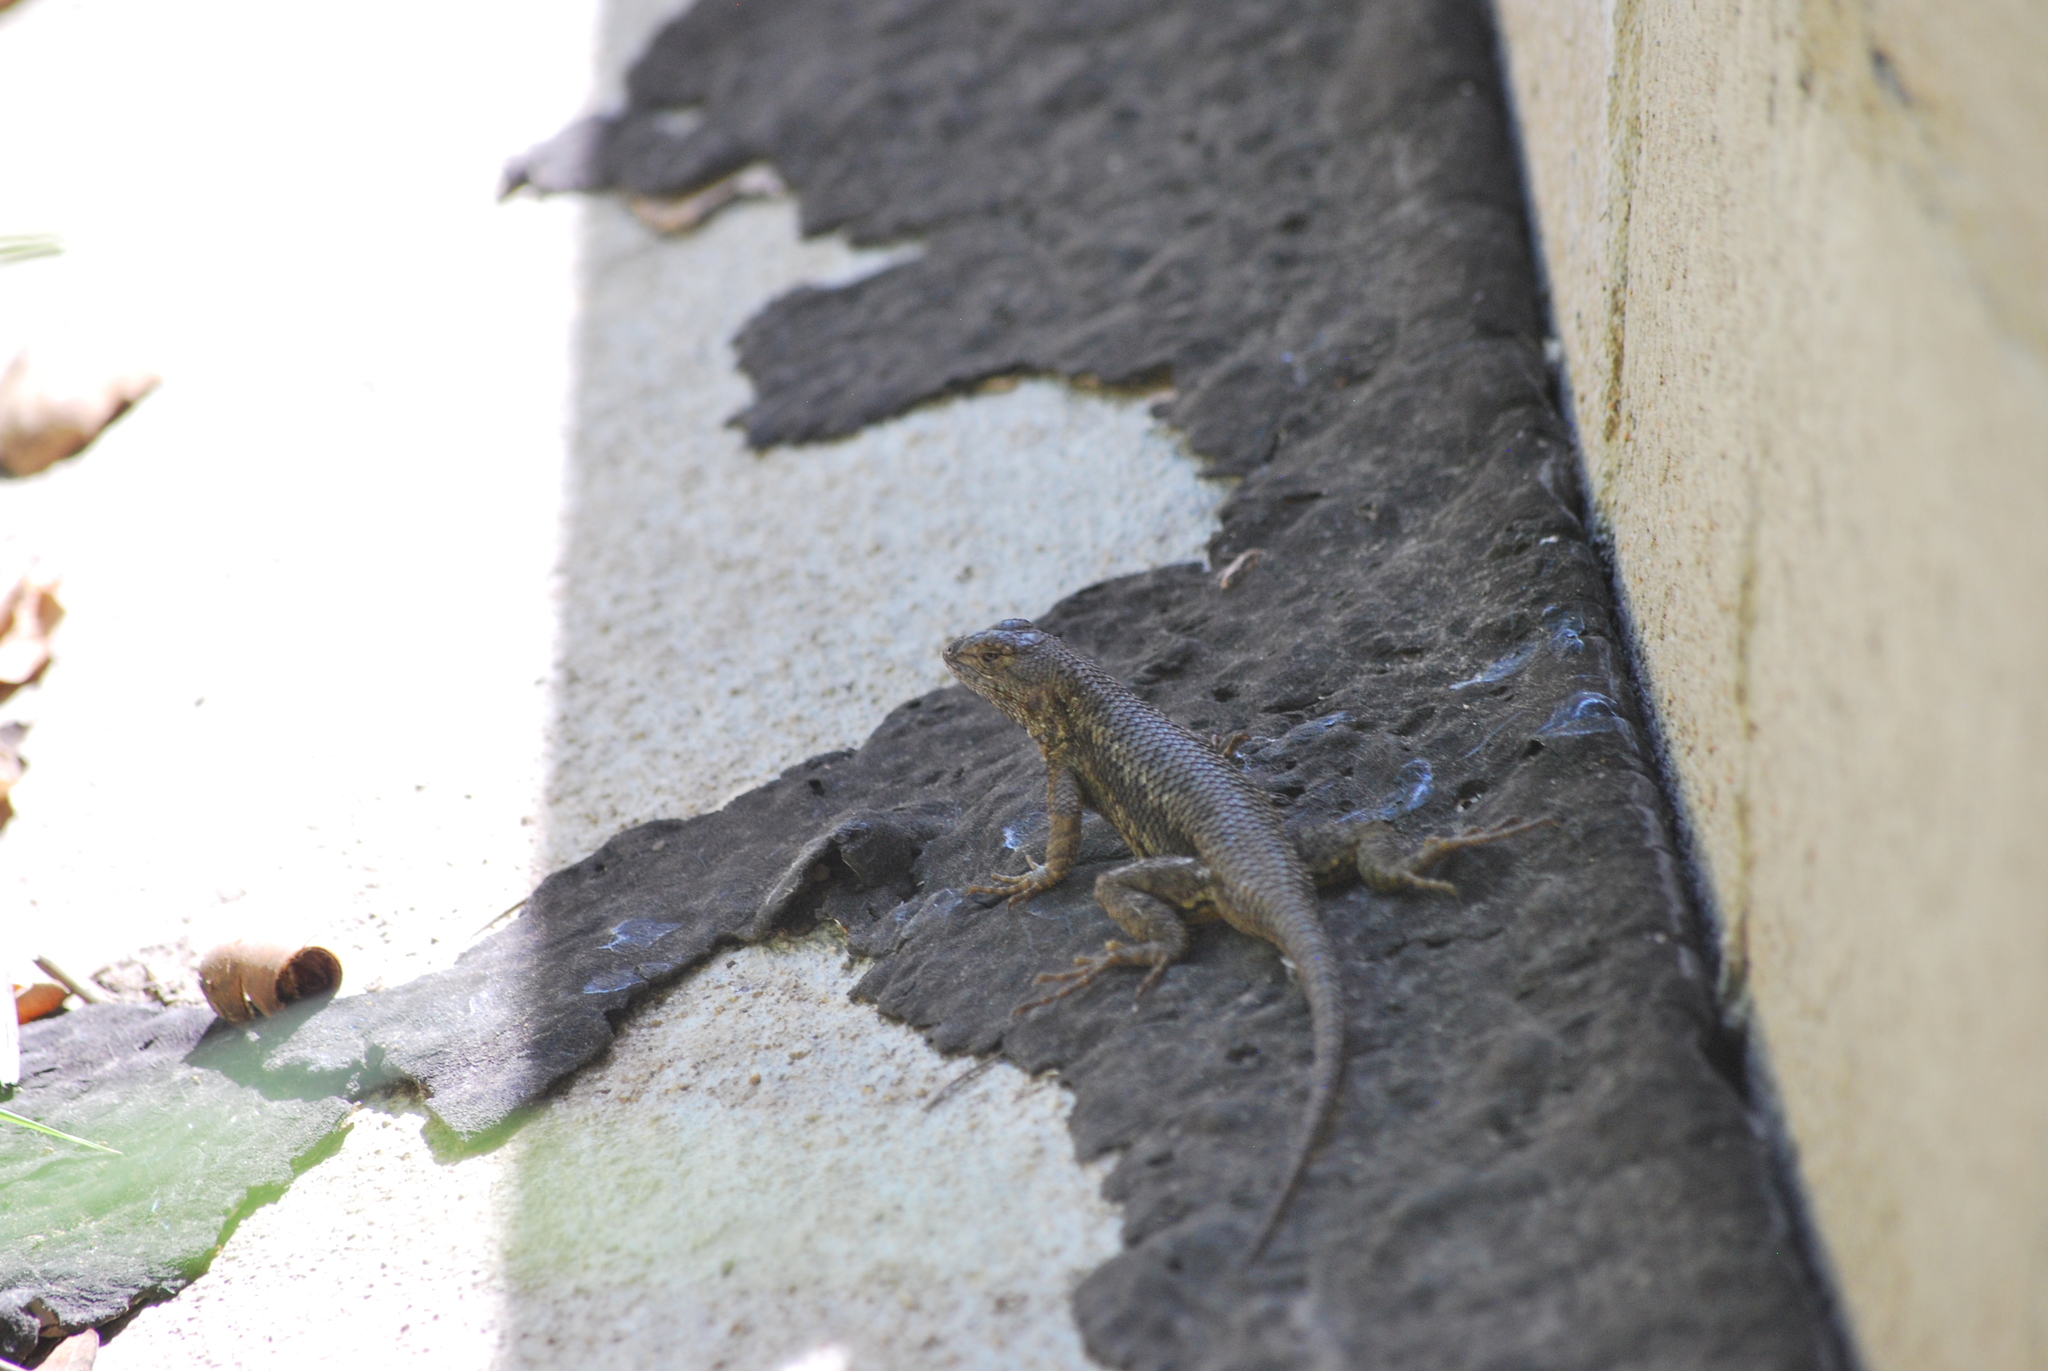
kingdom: Animalia
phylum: Chordata
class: Squamata
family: Phrynosomatidae
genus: Sceloporus
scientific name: Sceloporus occidentalis
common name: Western fence lizard
